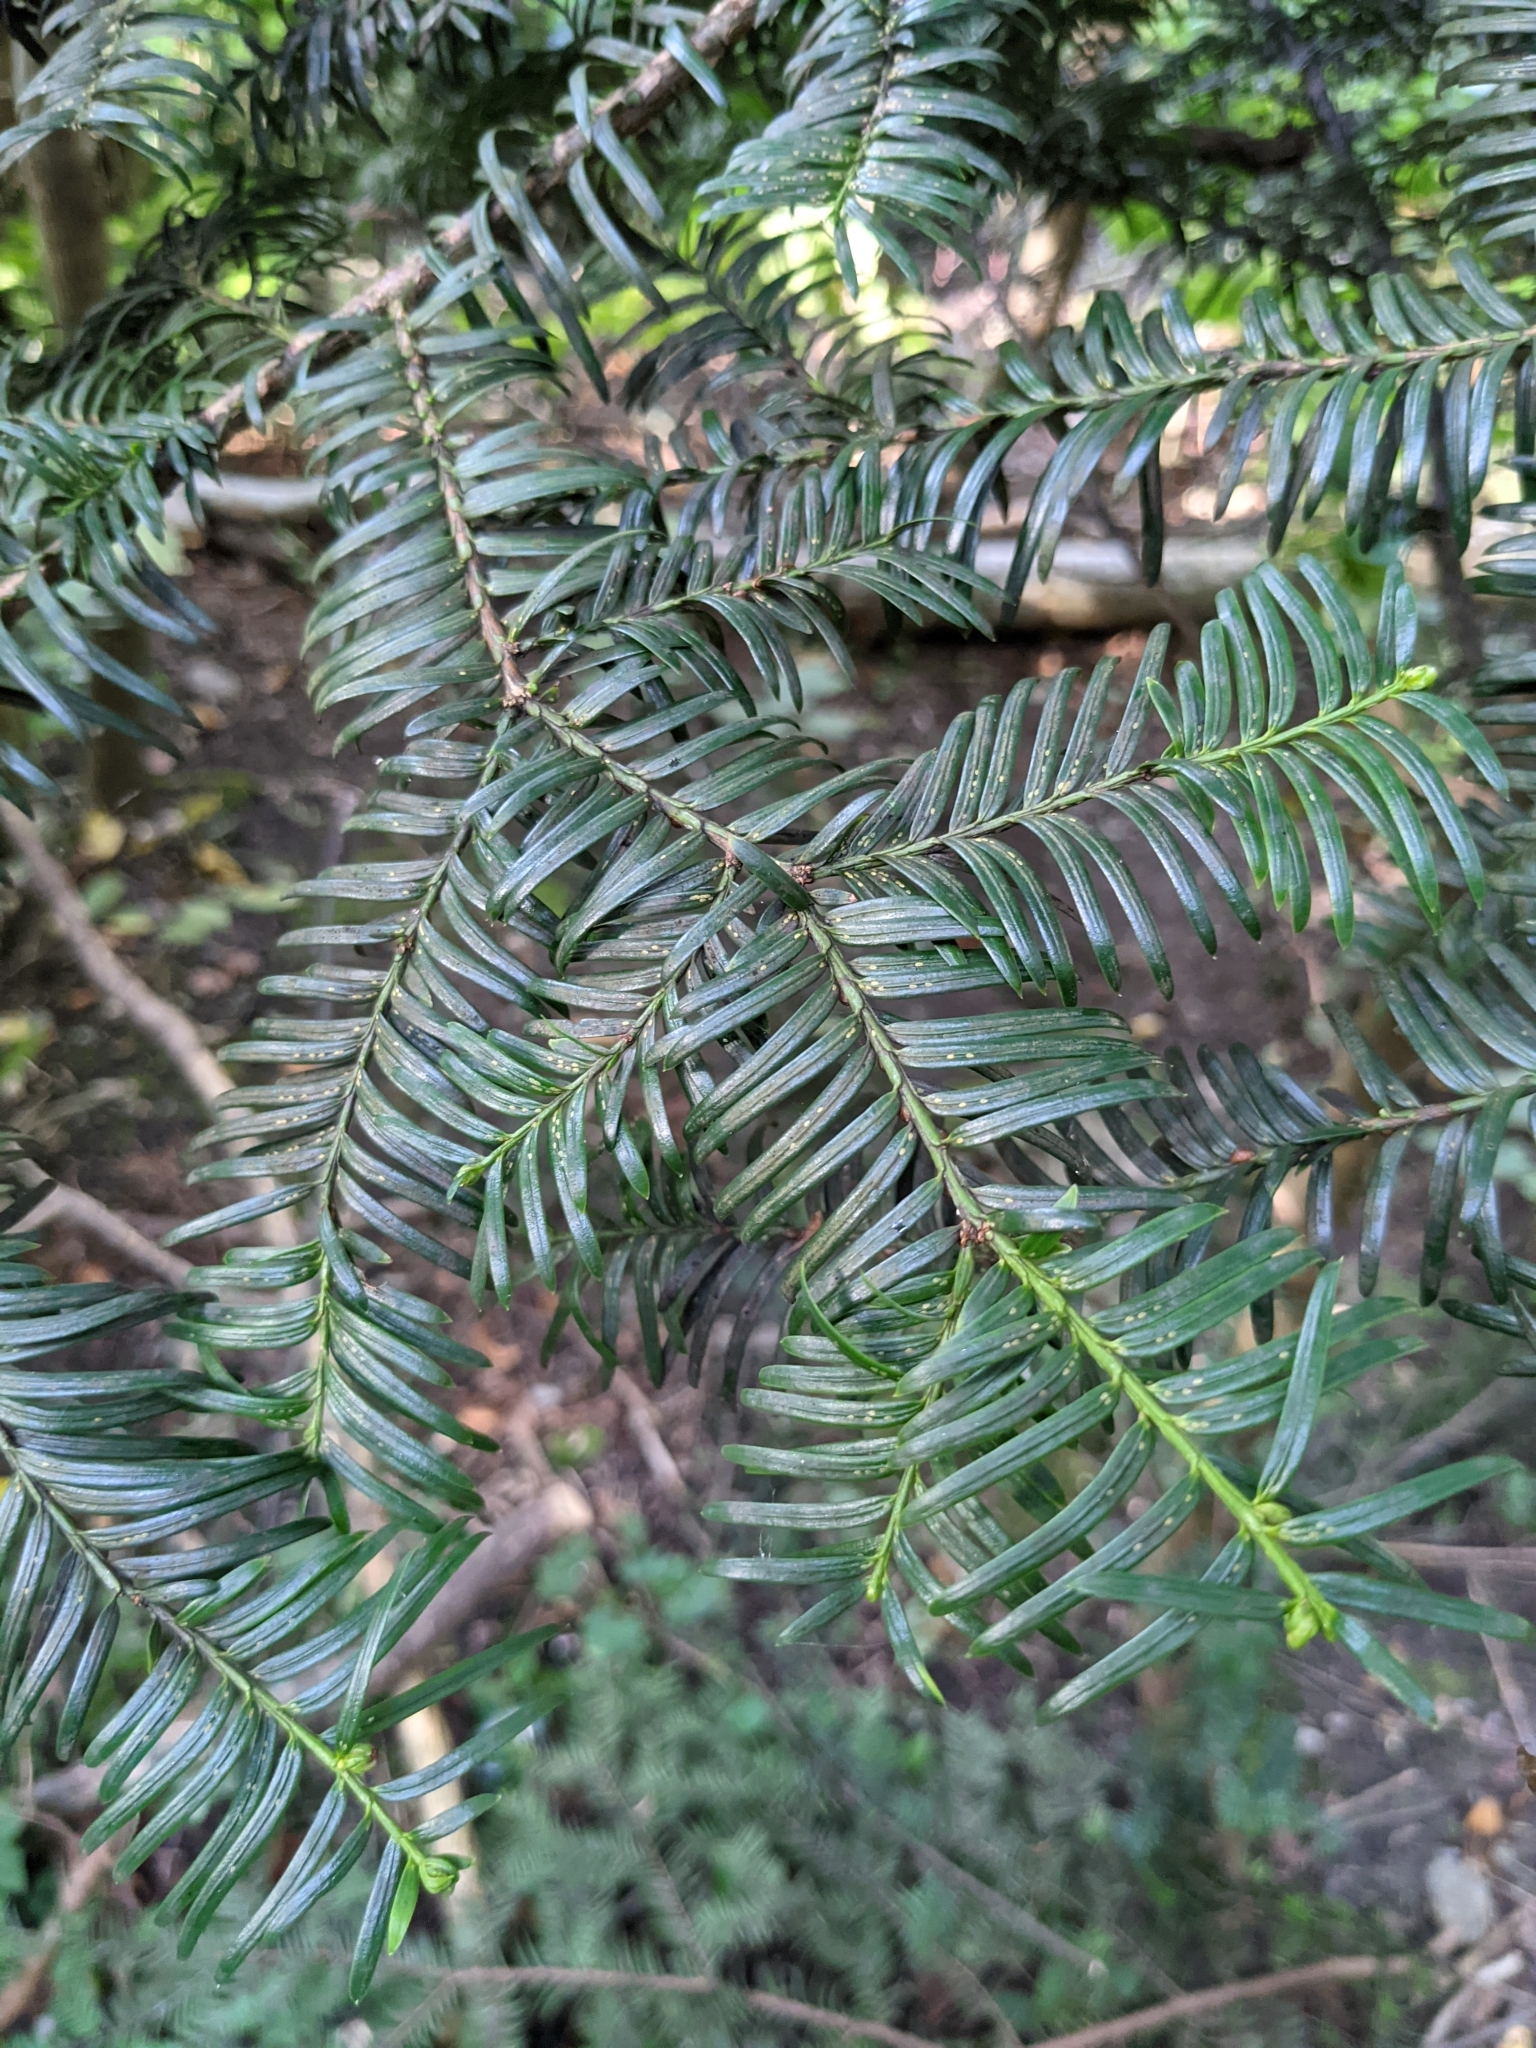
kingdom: Plantae
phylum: Tracheophyta
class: Pinopsida
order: Pinales
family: Taxaceae
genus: Taxus
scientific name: Taxus baccata
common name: Yew
